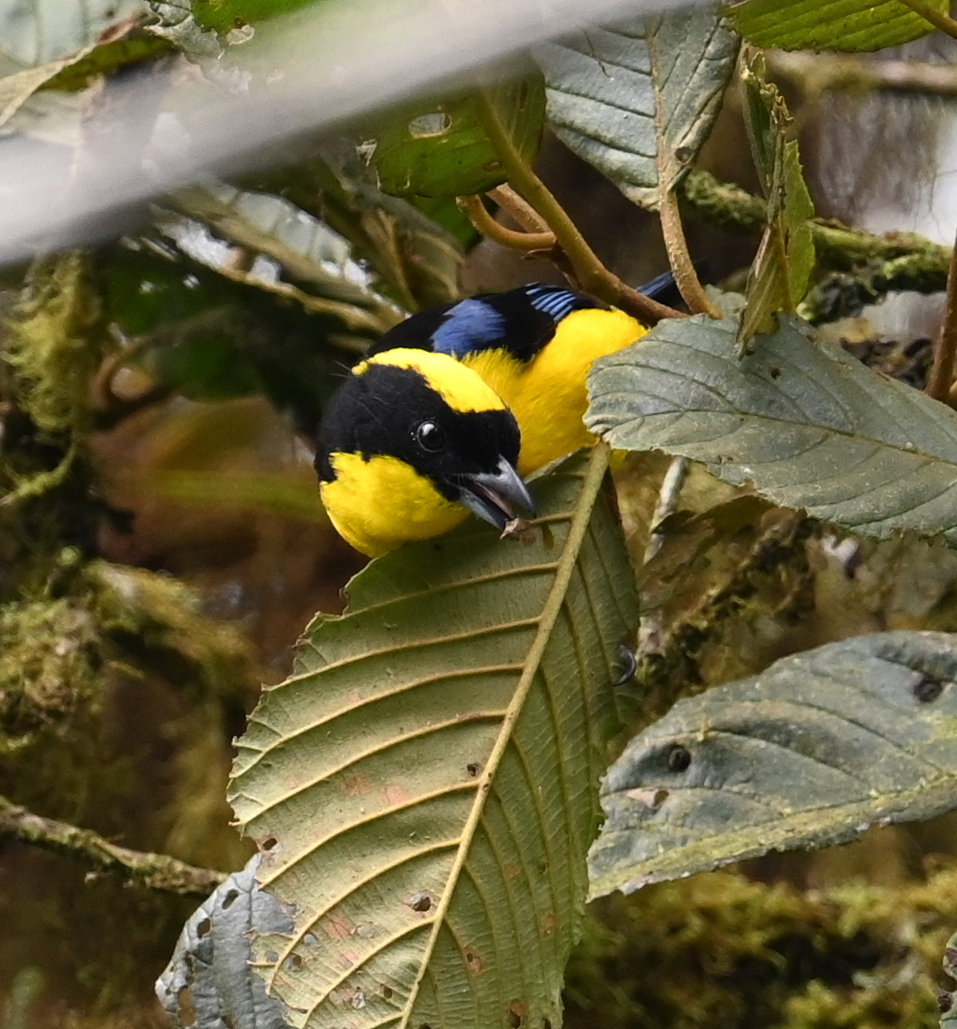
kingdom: Animalia
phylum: Chordata
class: Aves
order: Passeriformes
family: Thraupidae
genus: Anisognathus
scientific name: Anisognathus somptuosus
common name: Blue-winged mountain-tanager
